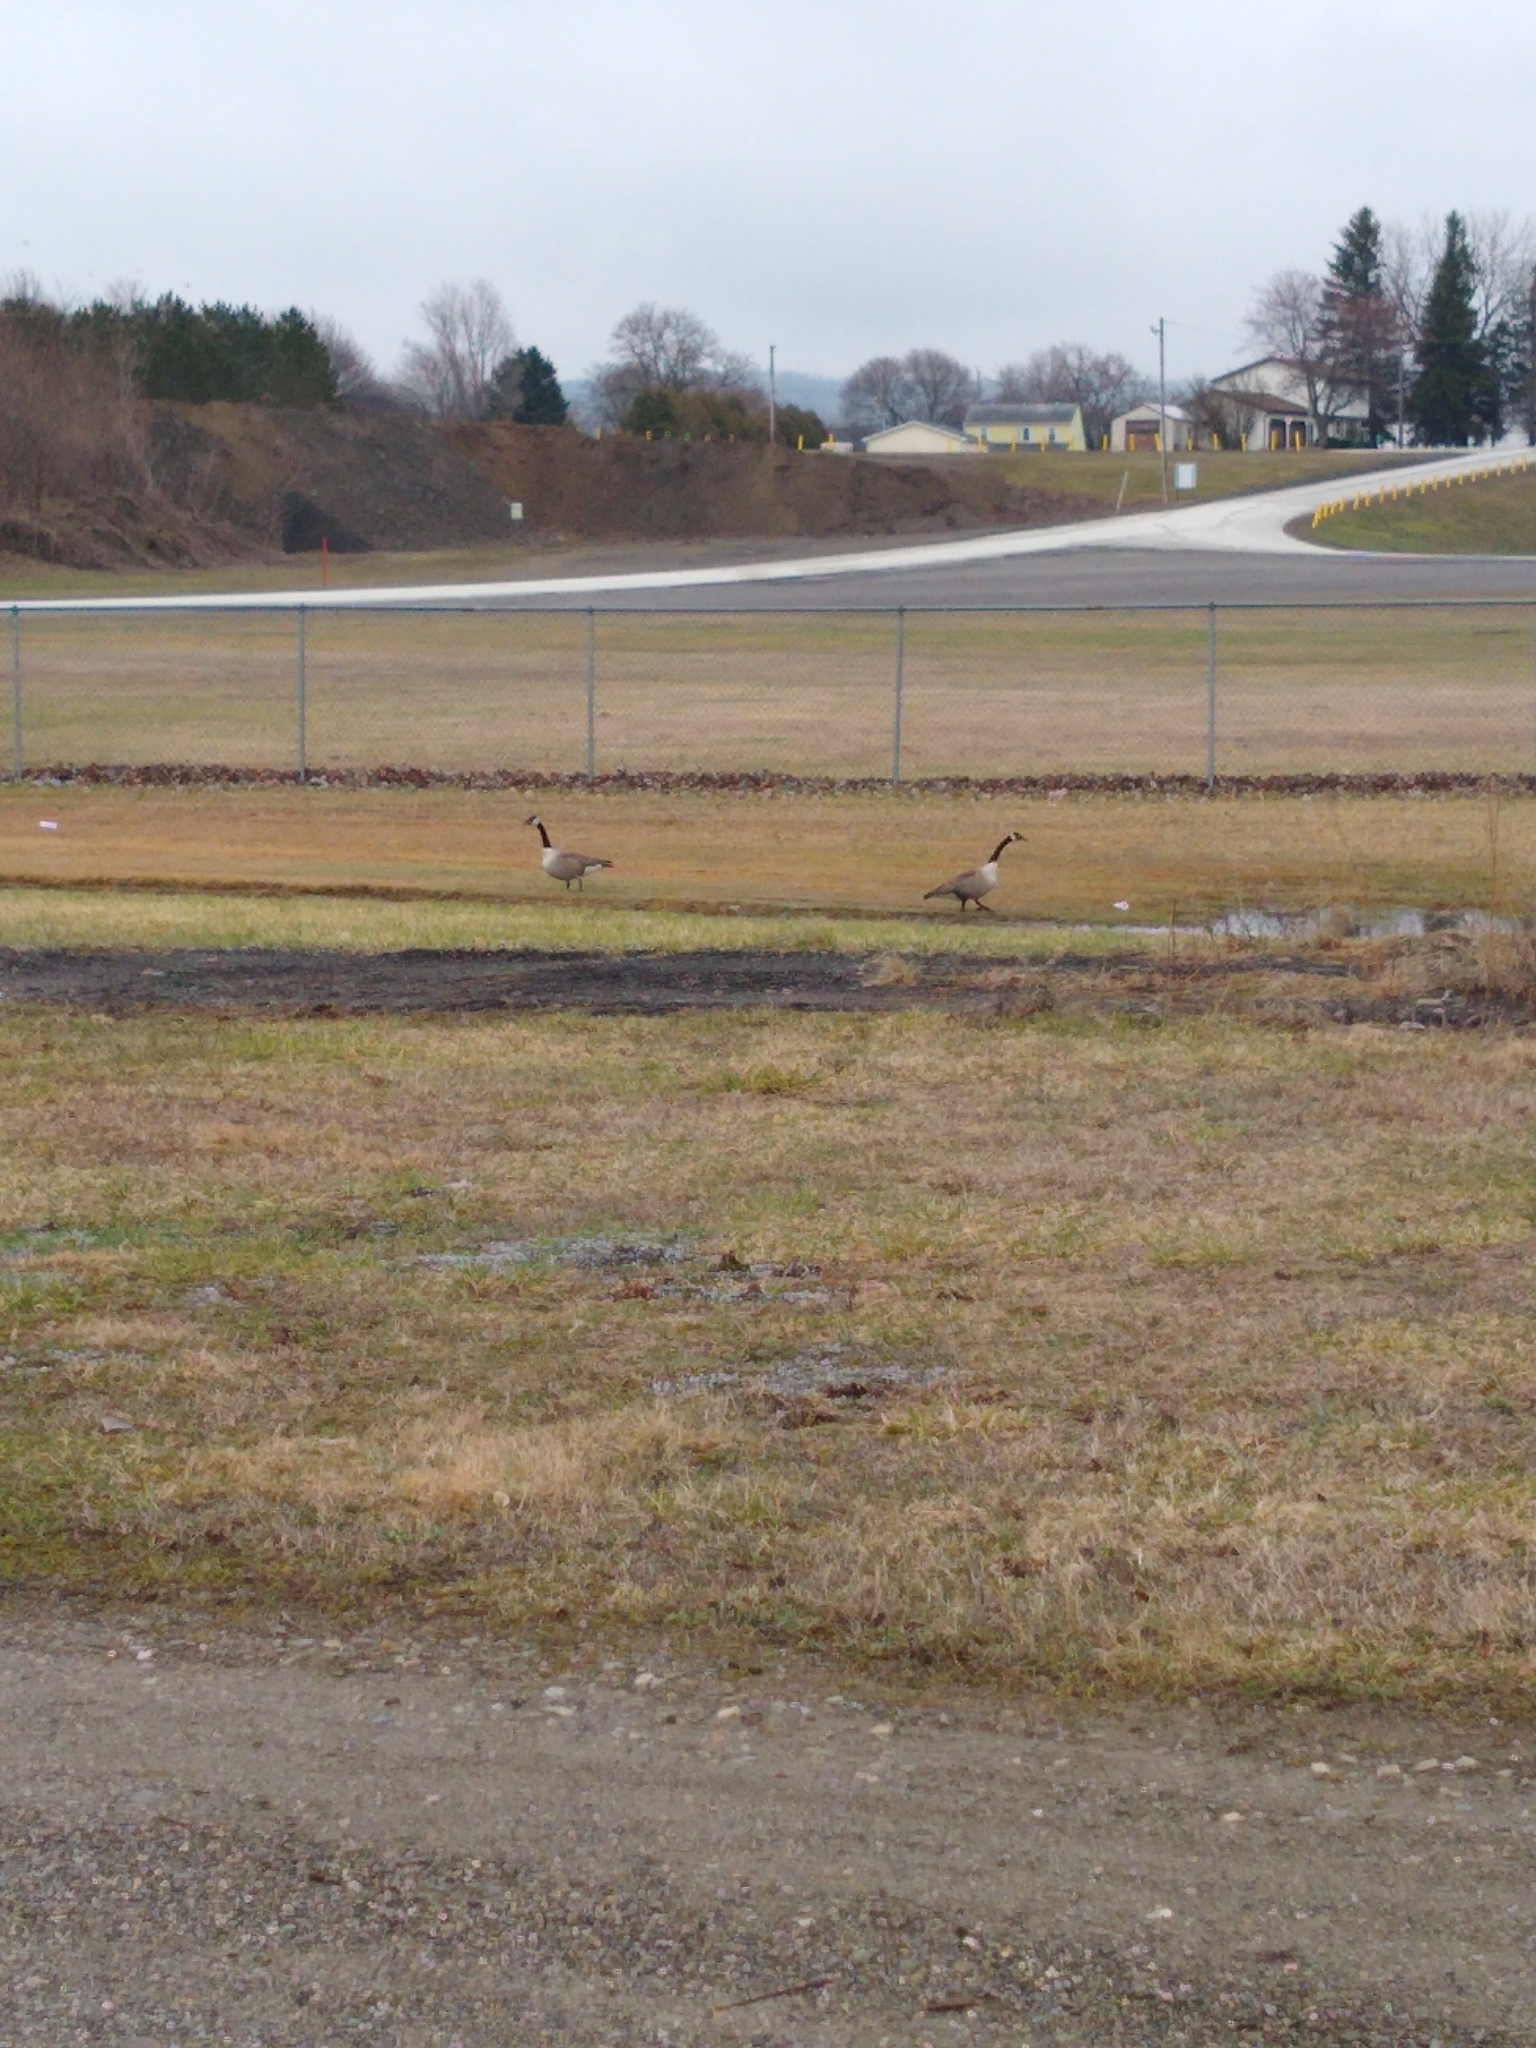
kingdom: Animalia
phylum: Chordata
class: Aves
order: Anseriformes
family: Anatidae
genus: Branta
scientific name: Branta canadensis
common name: Canada goose
